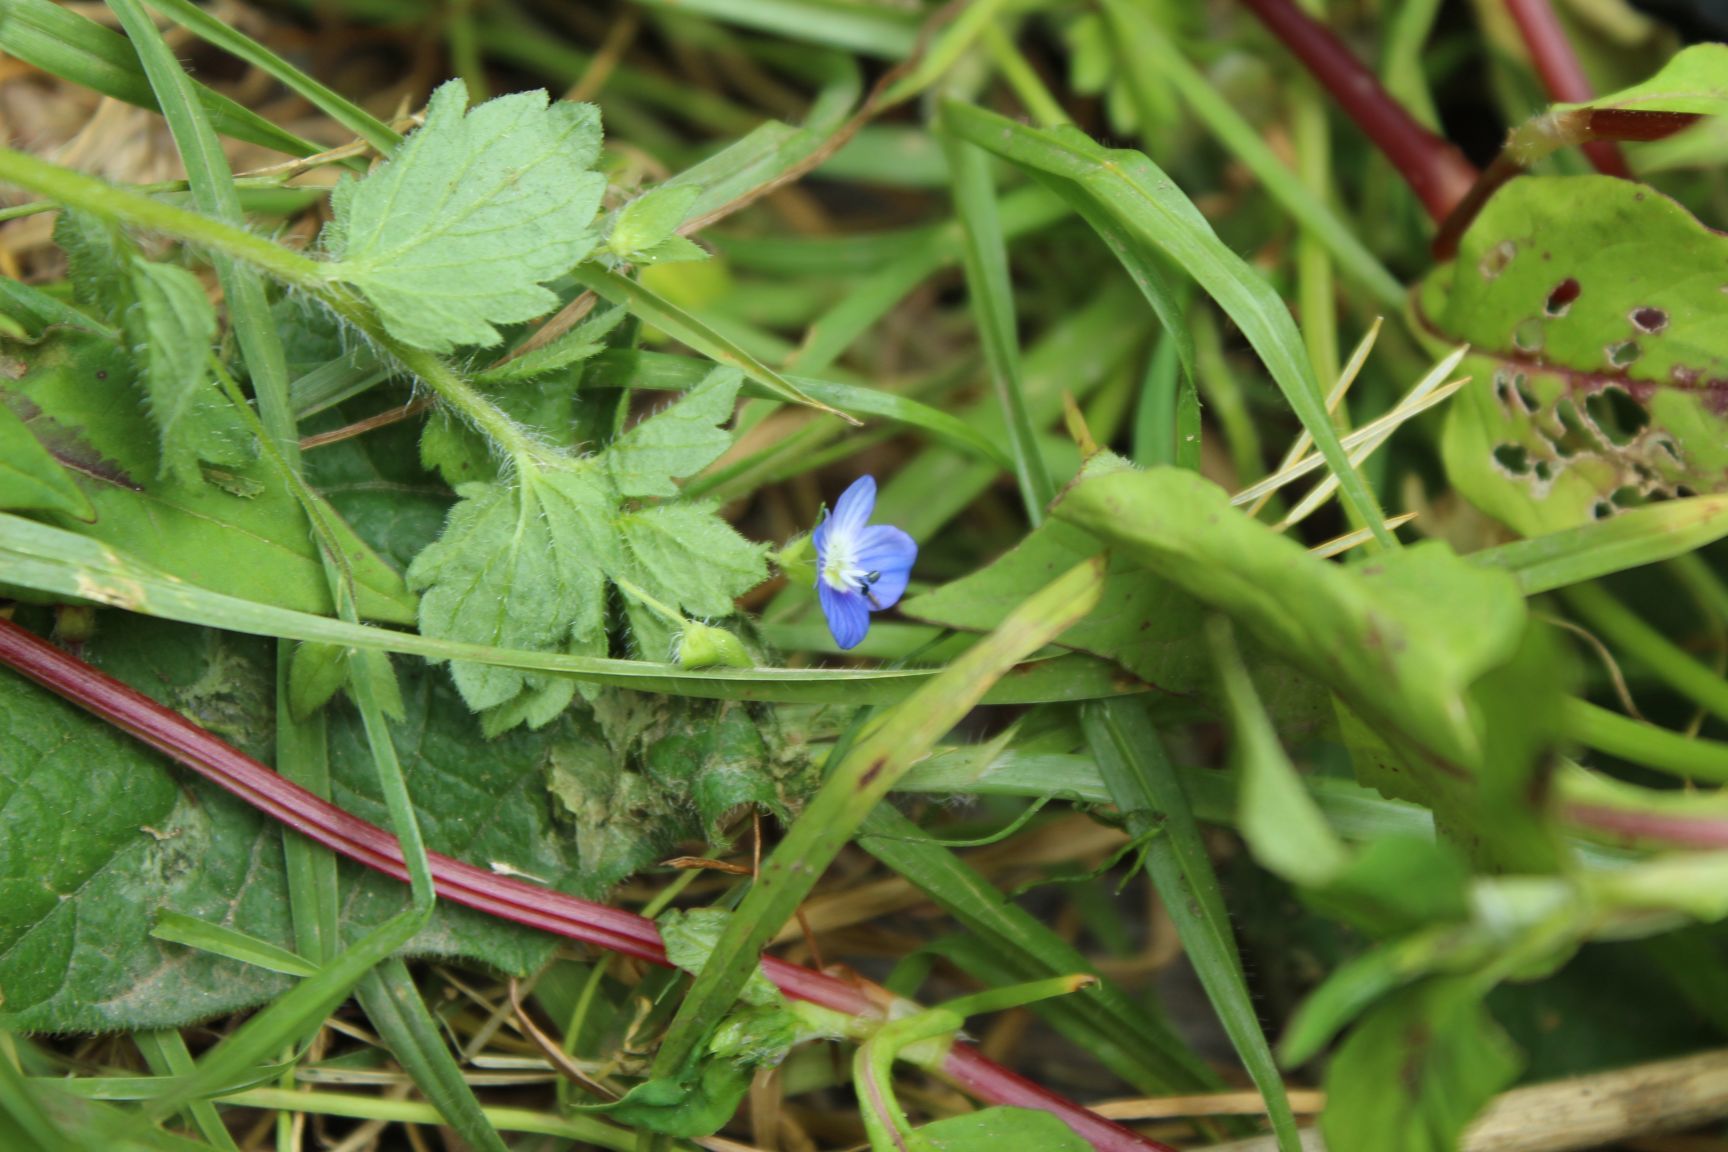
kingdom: Plantae
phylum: Tracheophyta
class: Magnoliopsida
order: Lamiales
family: Plantaginaceae
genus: Veronica
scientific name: Veronica persica
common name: Common field-speedwell
